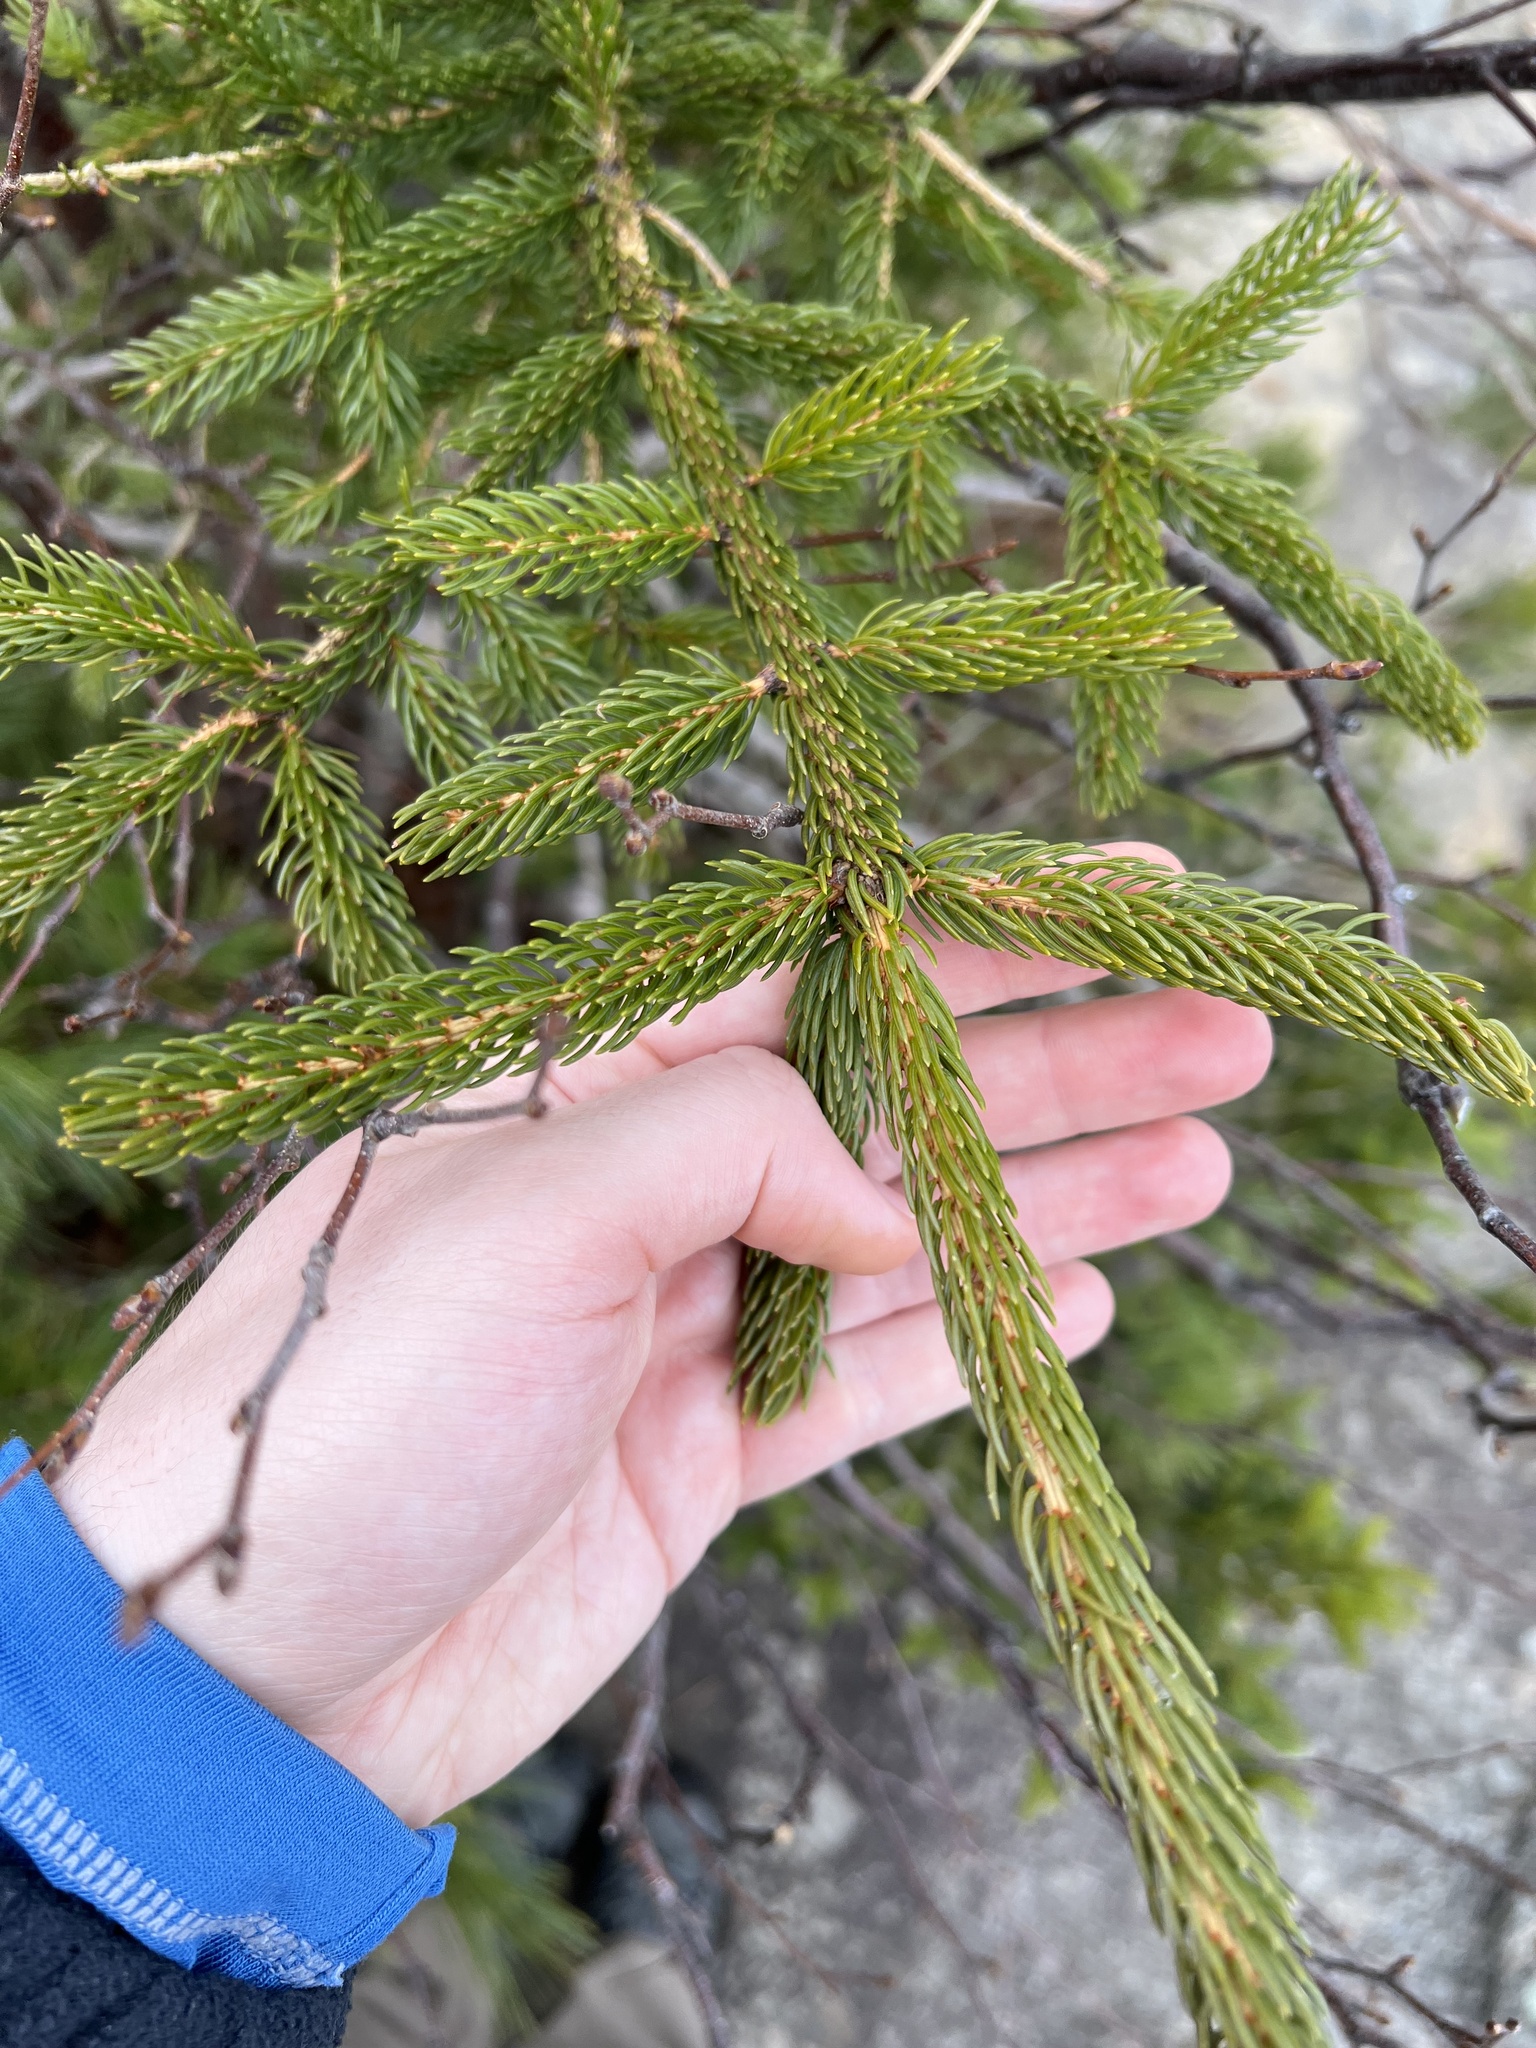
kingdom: Plantae
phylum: Tracheophyta
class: Pinopsida
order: Pinales
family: Pinaceae
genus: Picea
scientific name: Picea rubens
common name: Red spruce
